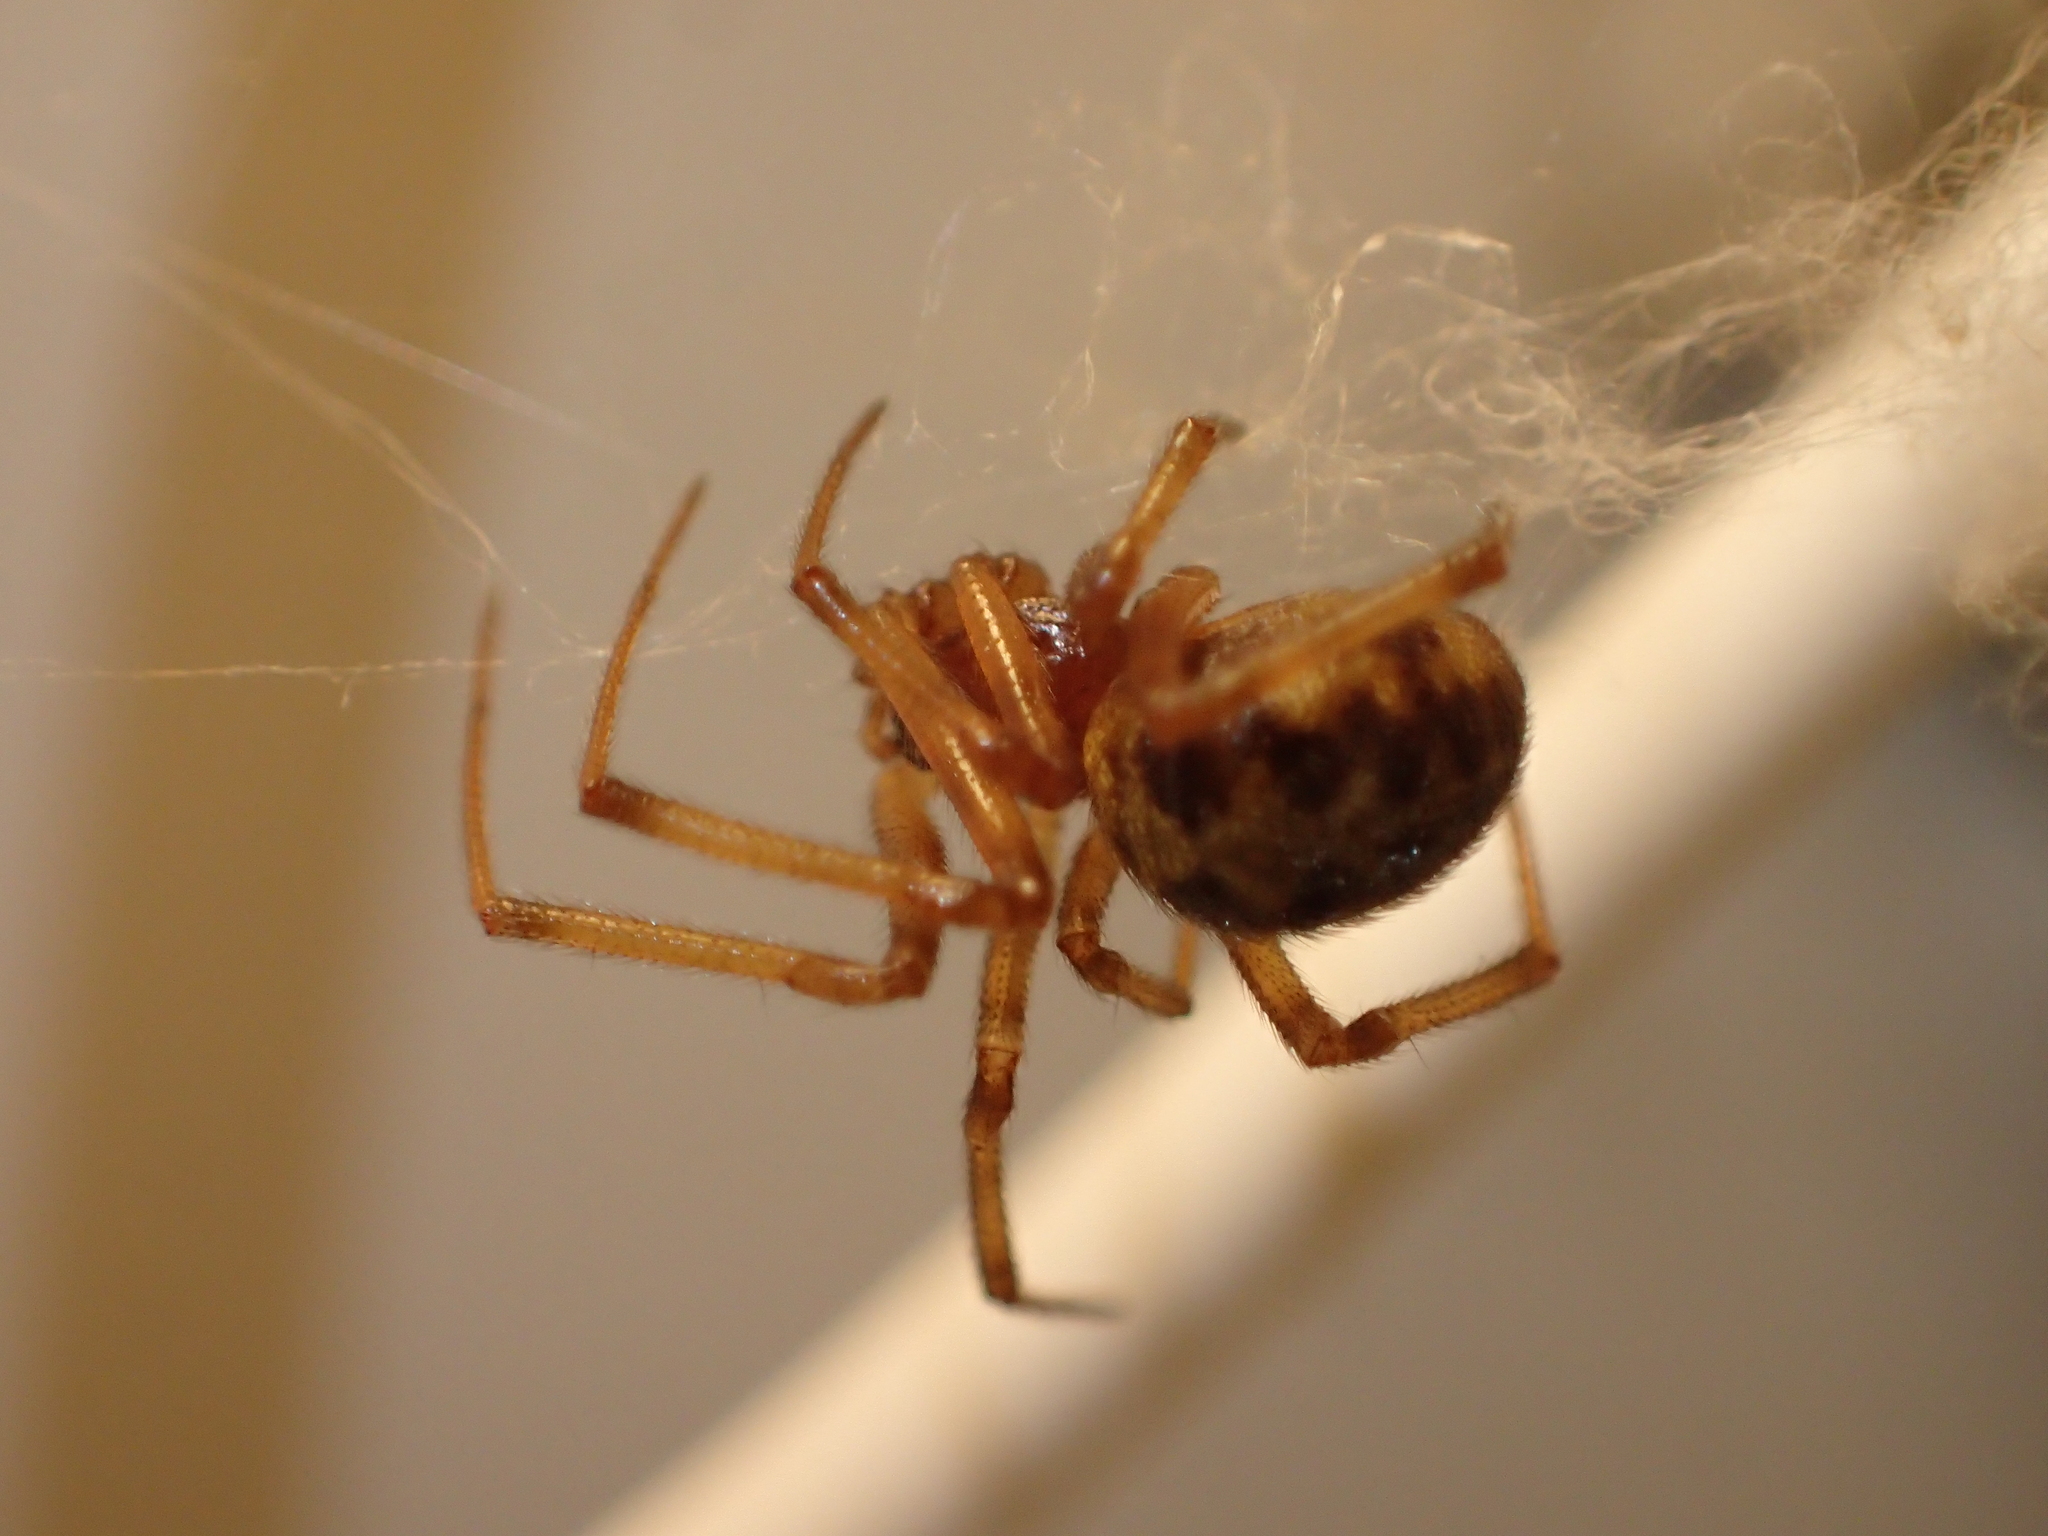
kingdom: Animalia
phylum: Arthropoda
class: Arachnida
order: Araneae
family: Theridiidae
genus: Steatoda
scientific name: Steatoda triangulosa
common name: Triangulate bud spider
